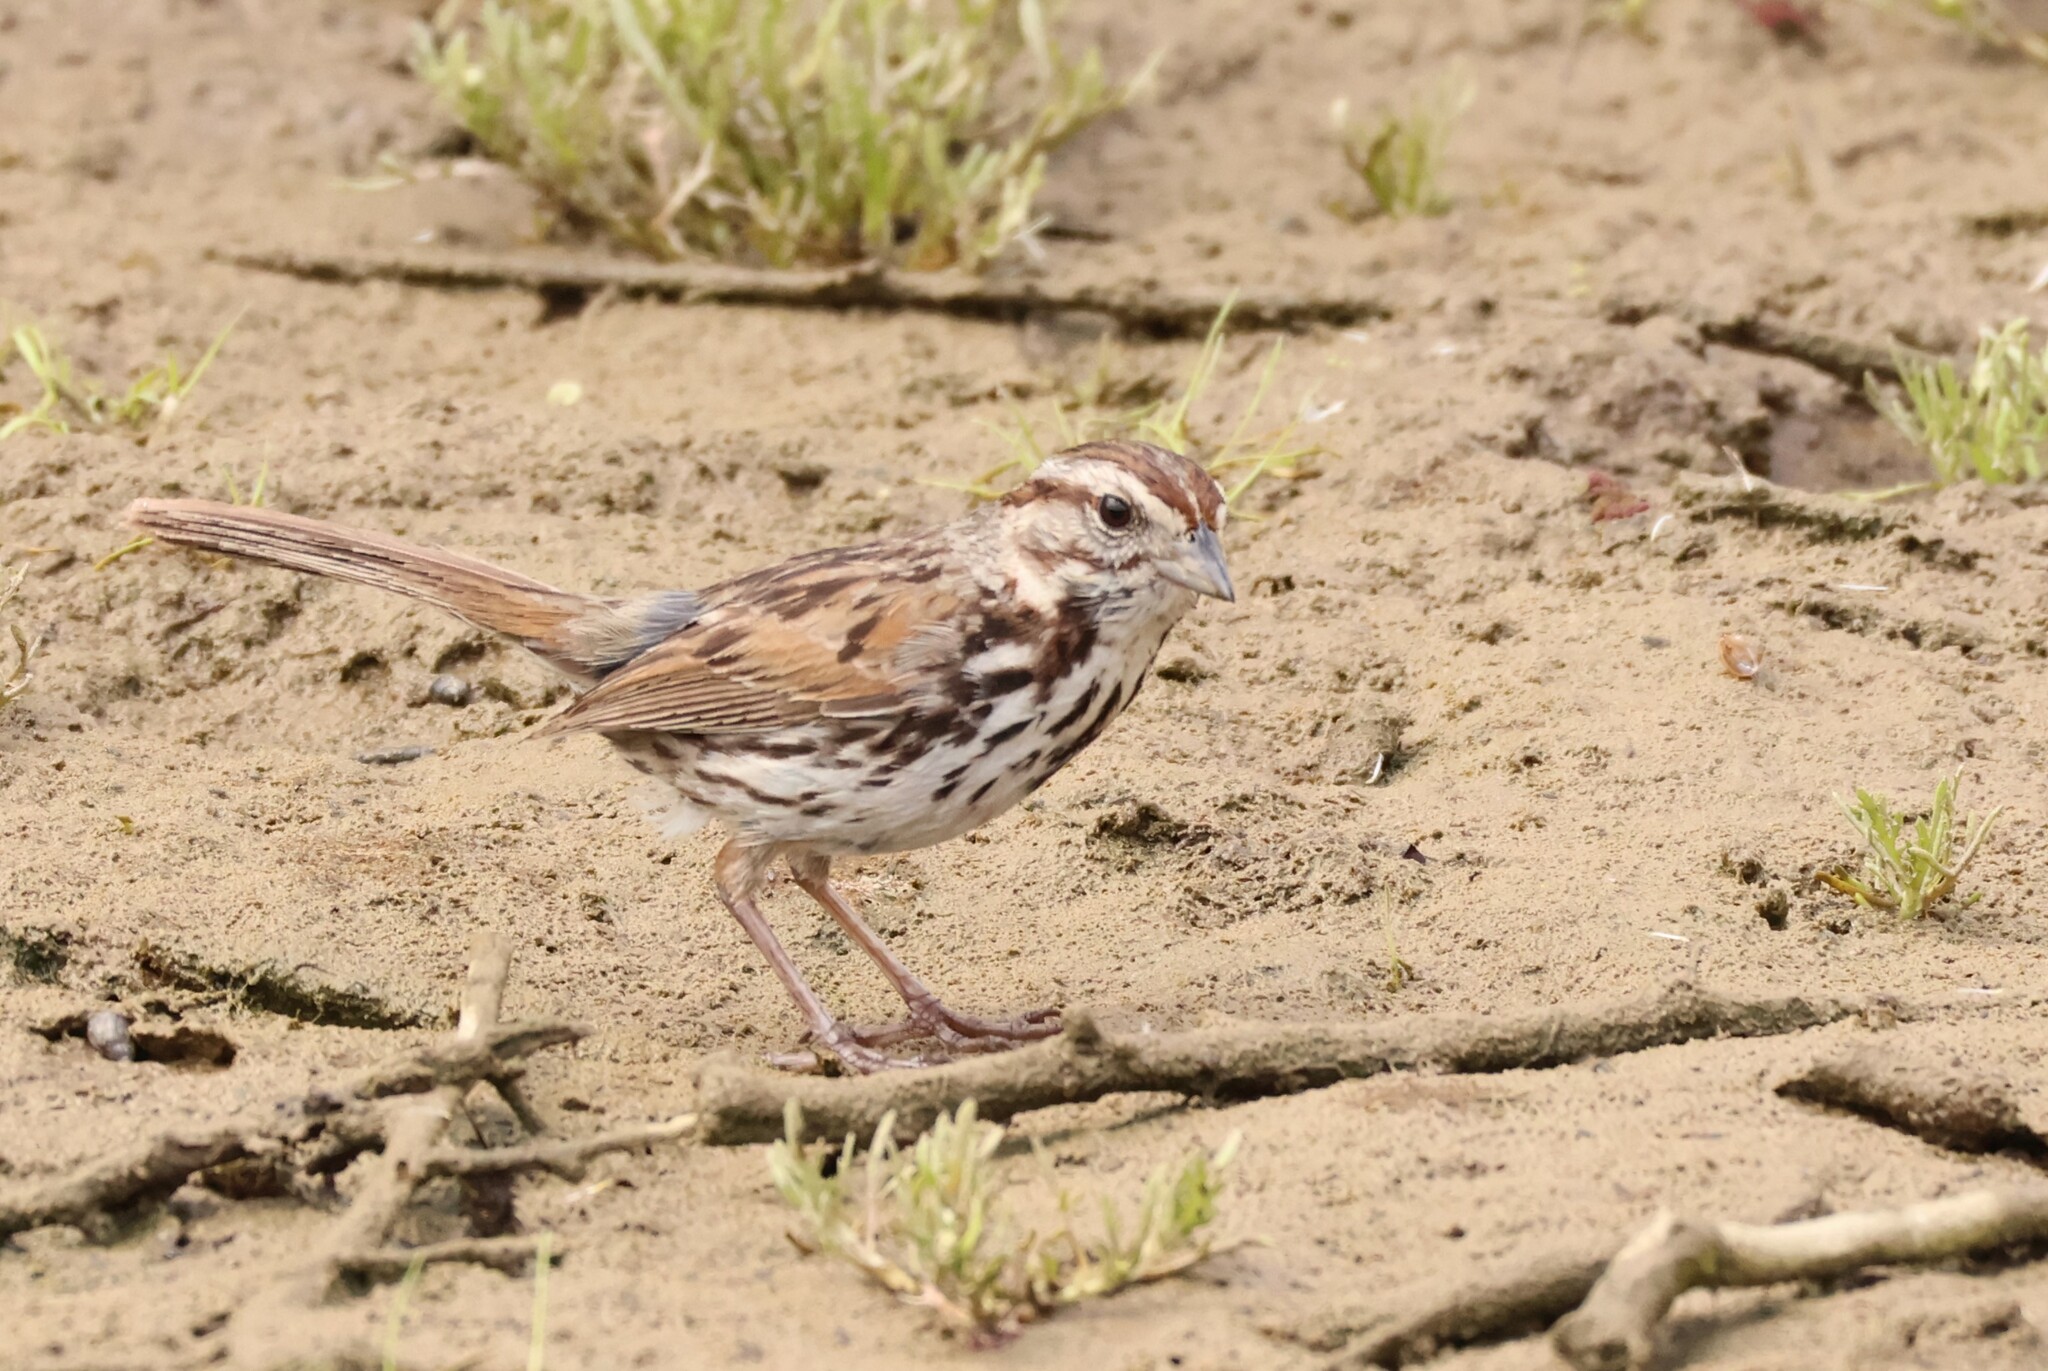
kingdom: Animalia
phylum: Chordata
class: Aves
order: Passeriformes
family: Passerellidae
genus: Melospiza
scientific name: Melospiza melodia
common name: Song sparrow
